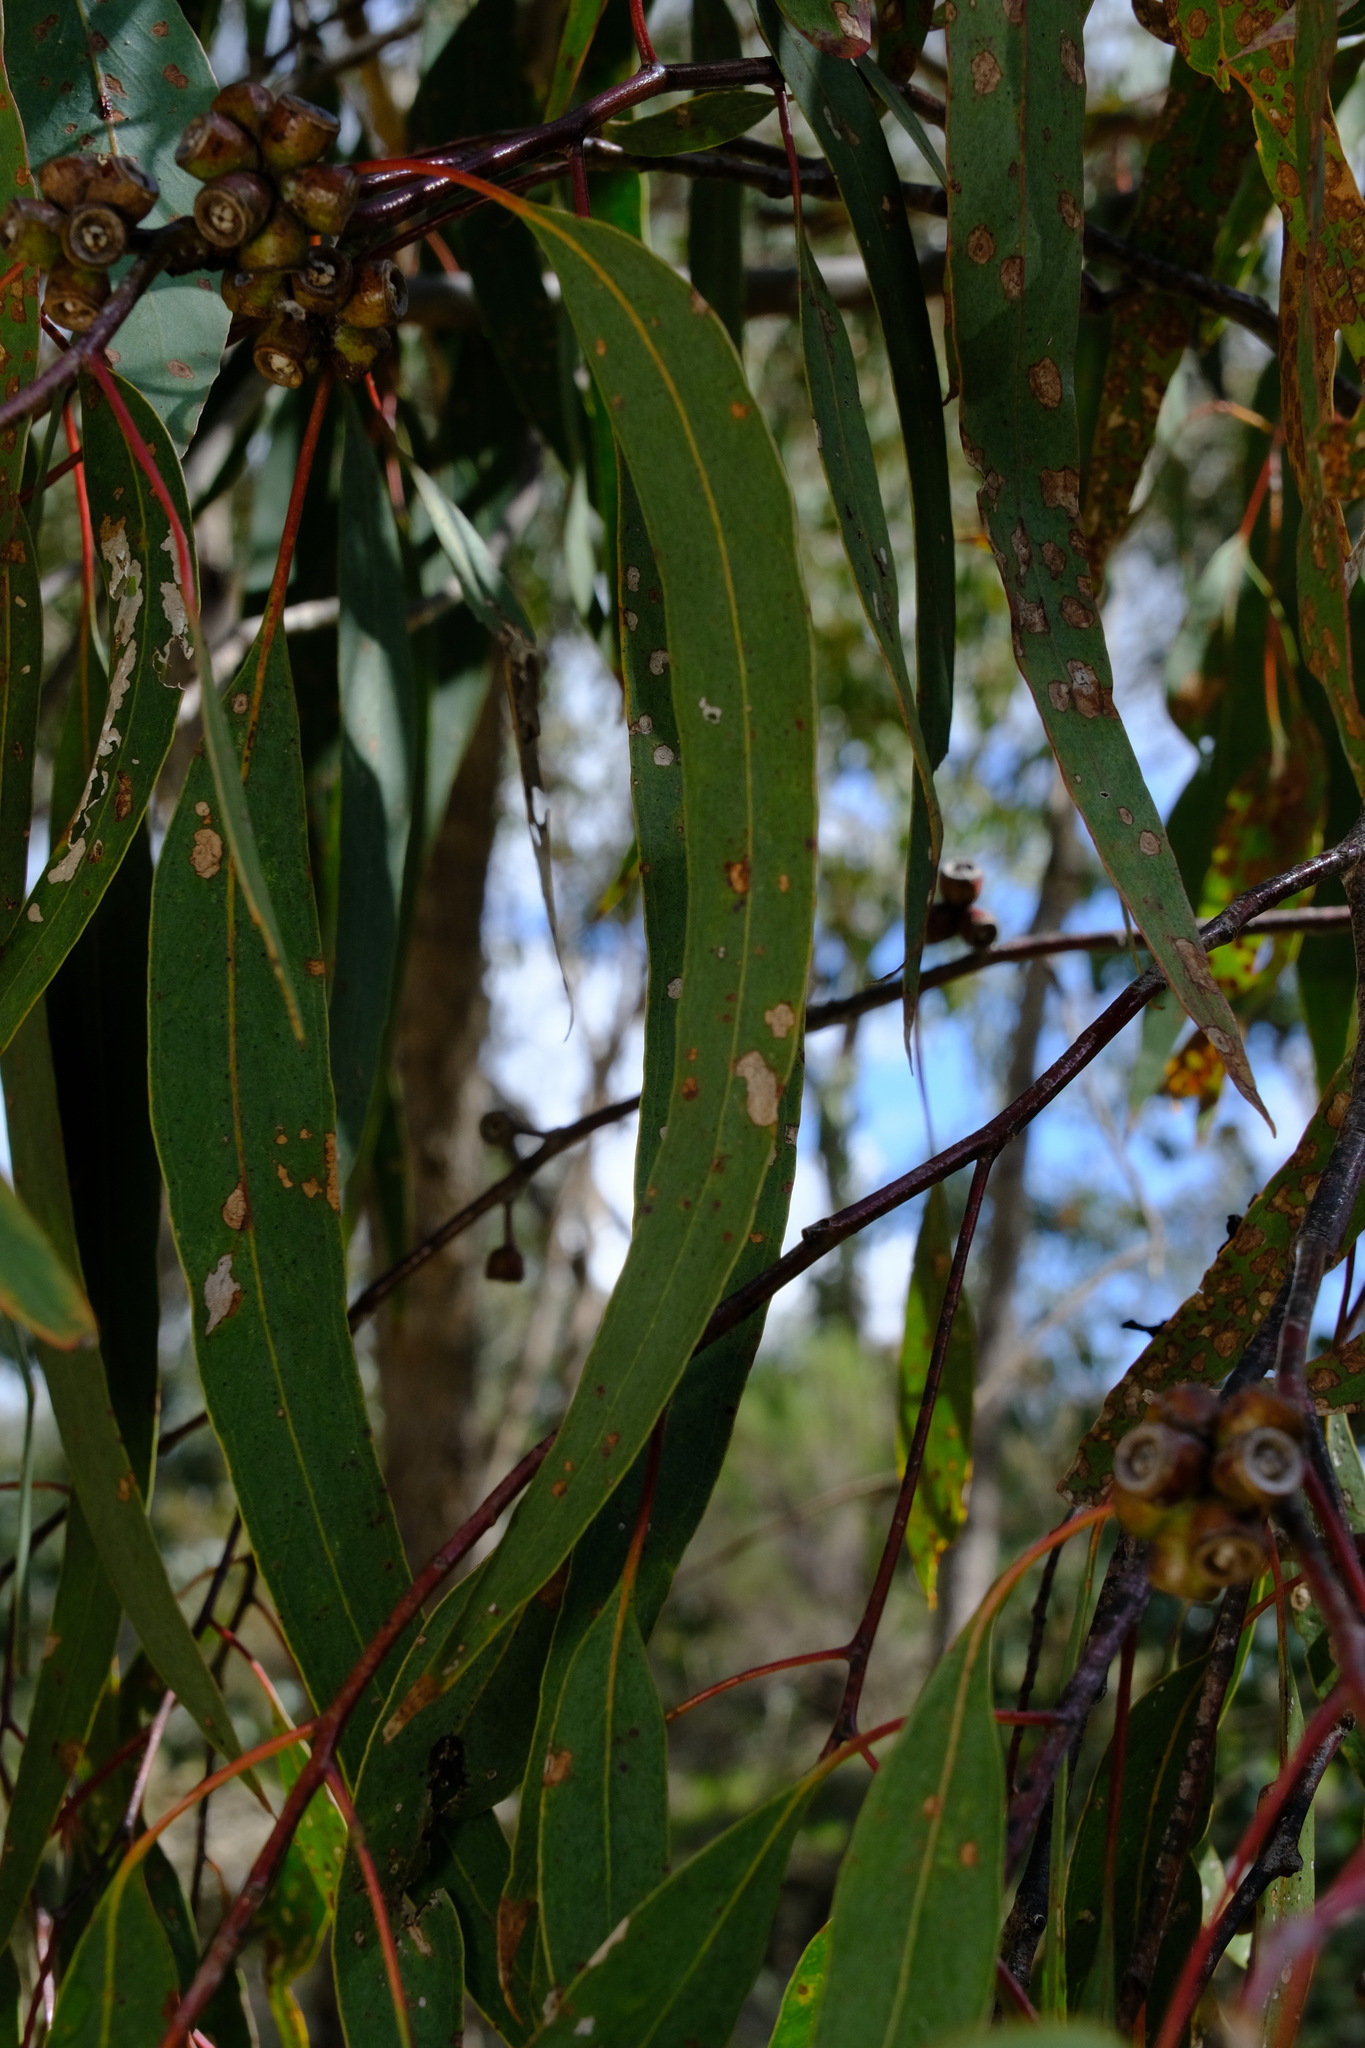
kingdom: Plantae
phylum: Tracheophyta
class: Magnoliopsida
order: Myrtales
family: Myrtaceae
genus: Eucalyptus
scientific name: Eucalyptus goniocalyx
